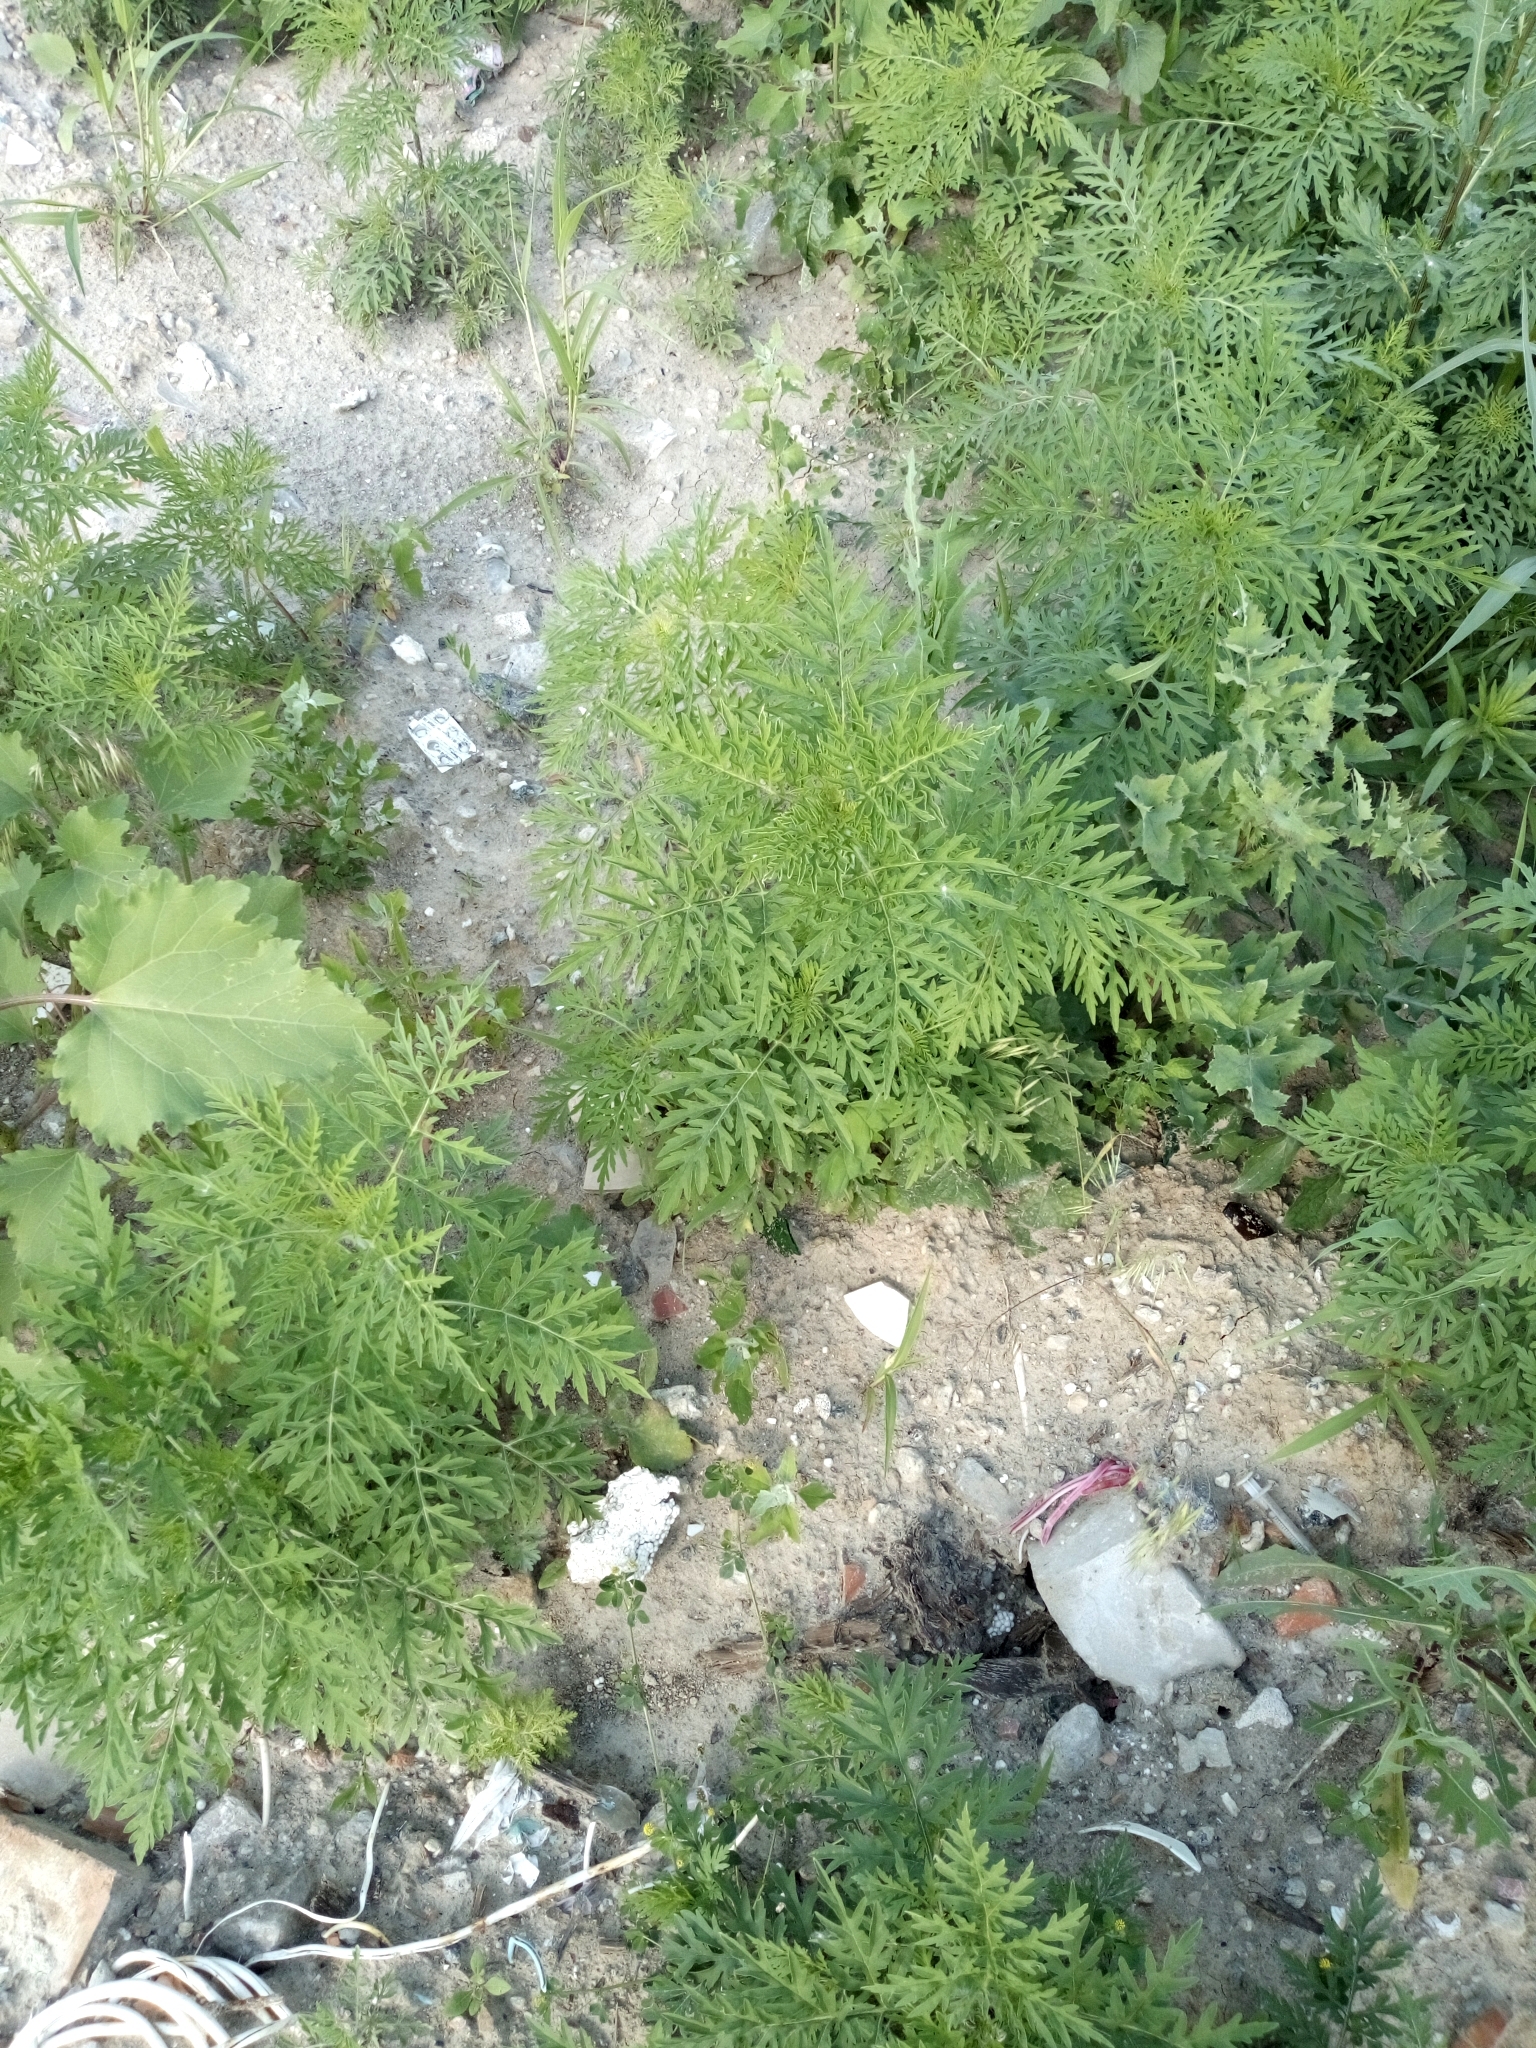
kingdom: Plantae
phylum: Tracheophyta
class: Magnoliopsida
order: Asterales
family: Asteraceae
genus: Ambrosia
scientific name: Ambrosia artemisiifolia
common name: Annual ragweed
